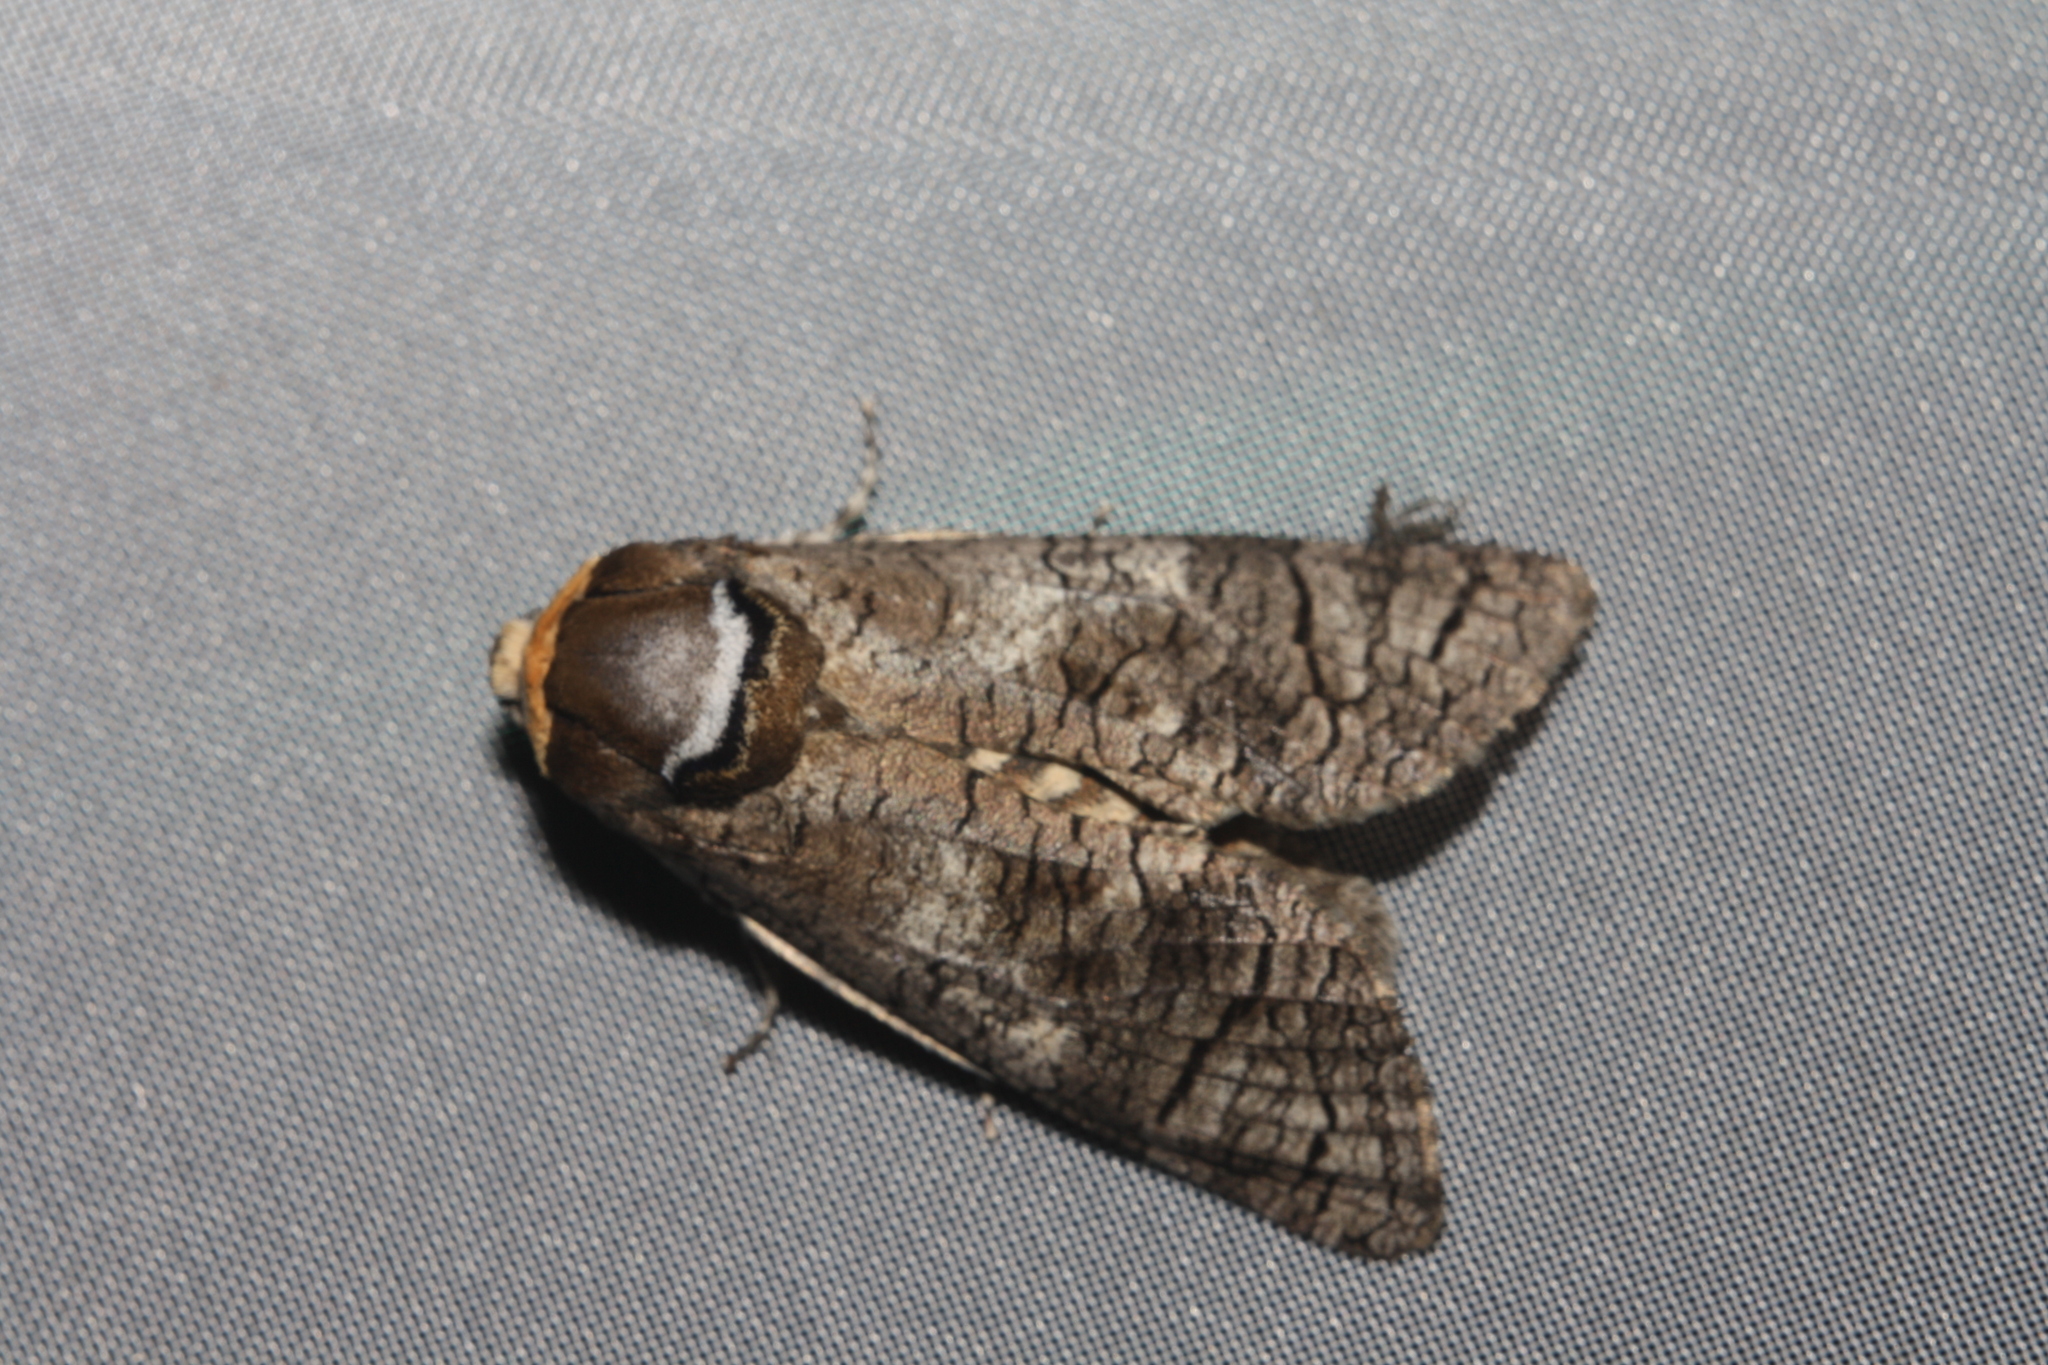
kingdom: Animalia
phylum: Arthropoda
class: Insecta
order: Lepidoptera
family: Cossidae
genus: Cossus
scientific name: Cossus cossus
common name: Goat moth
